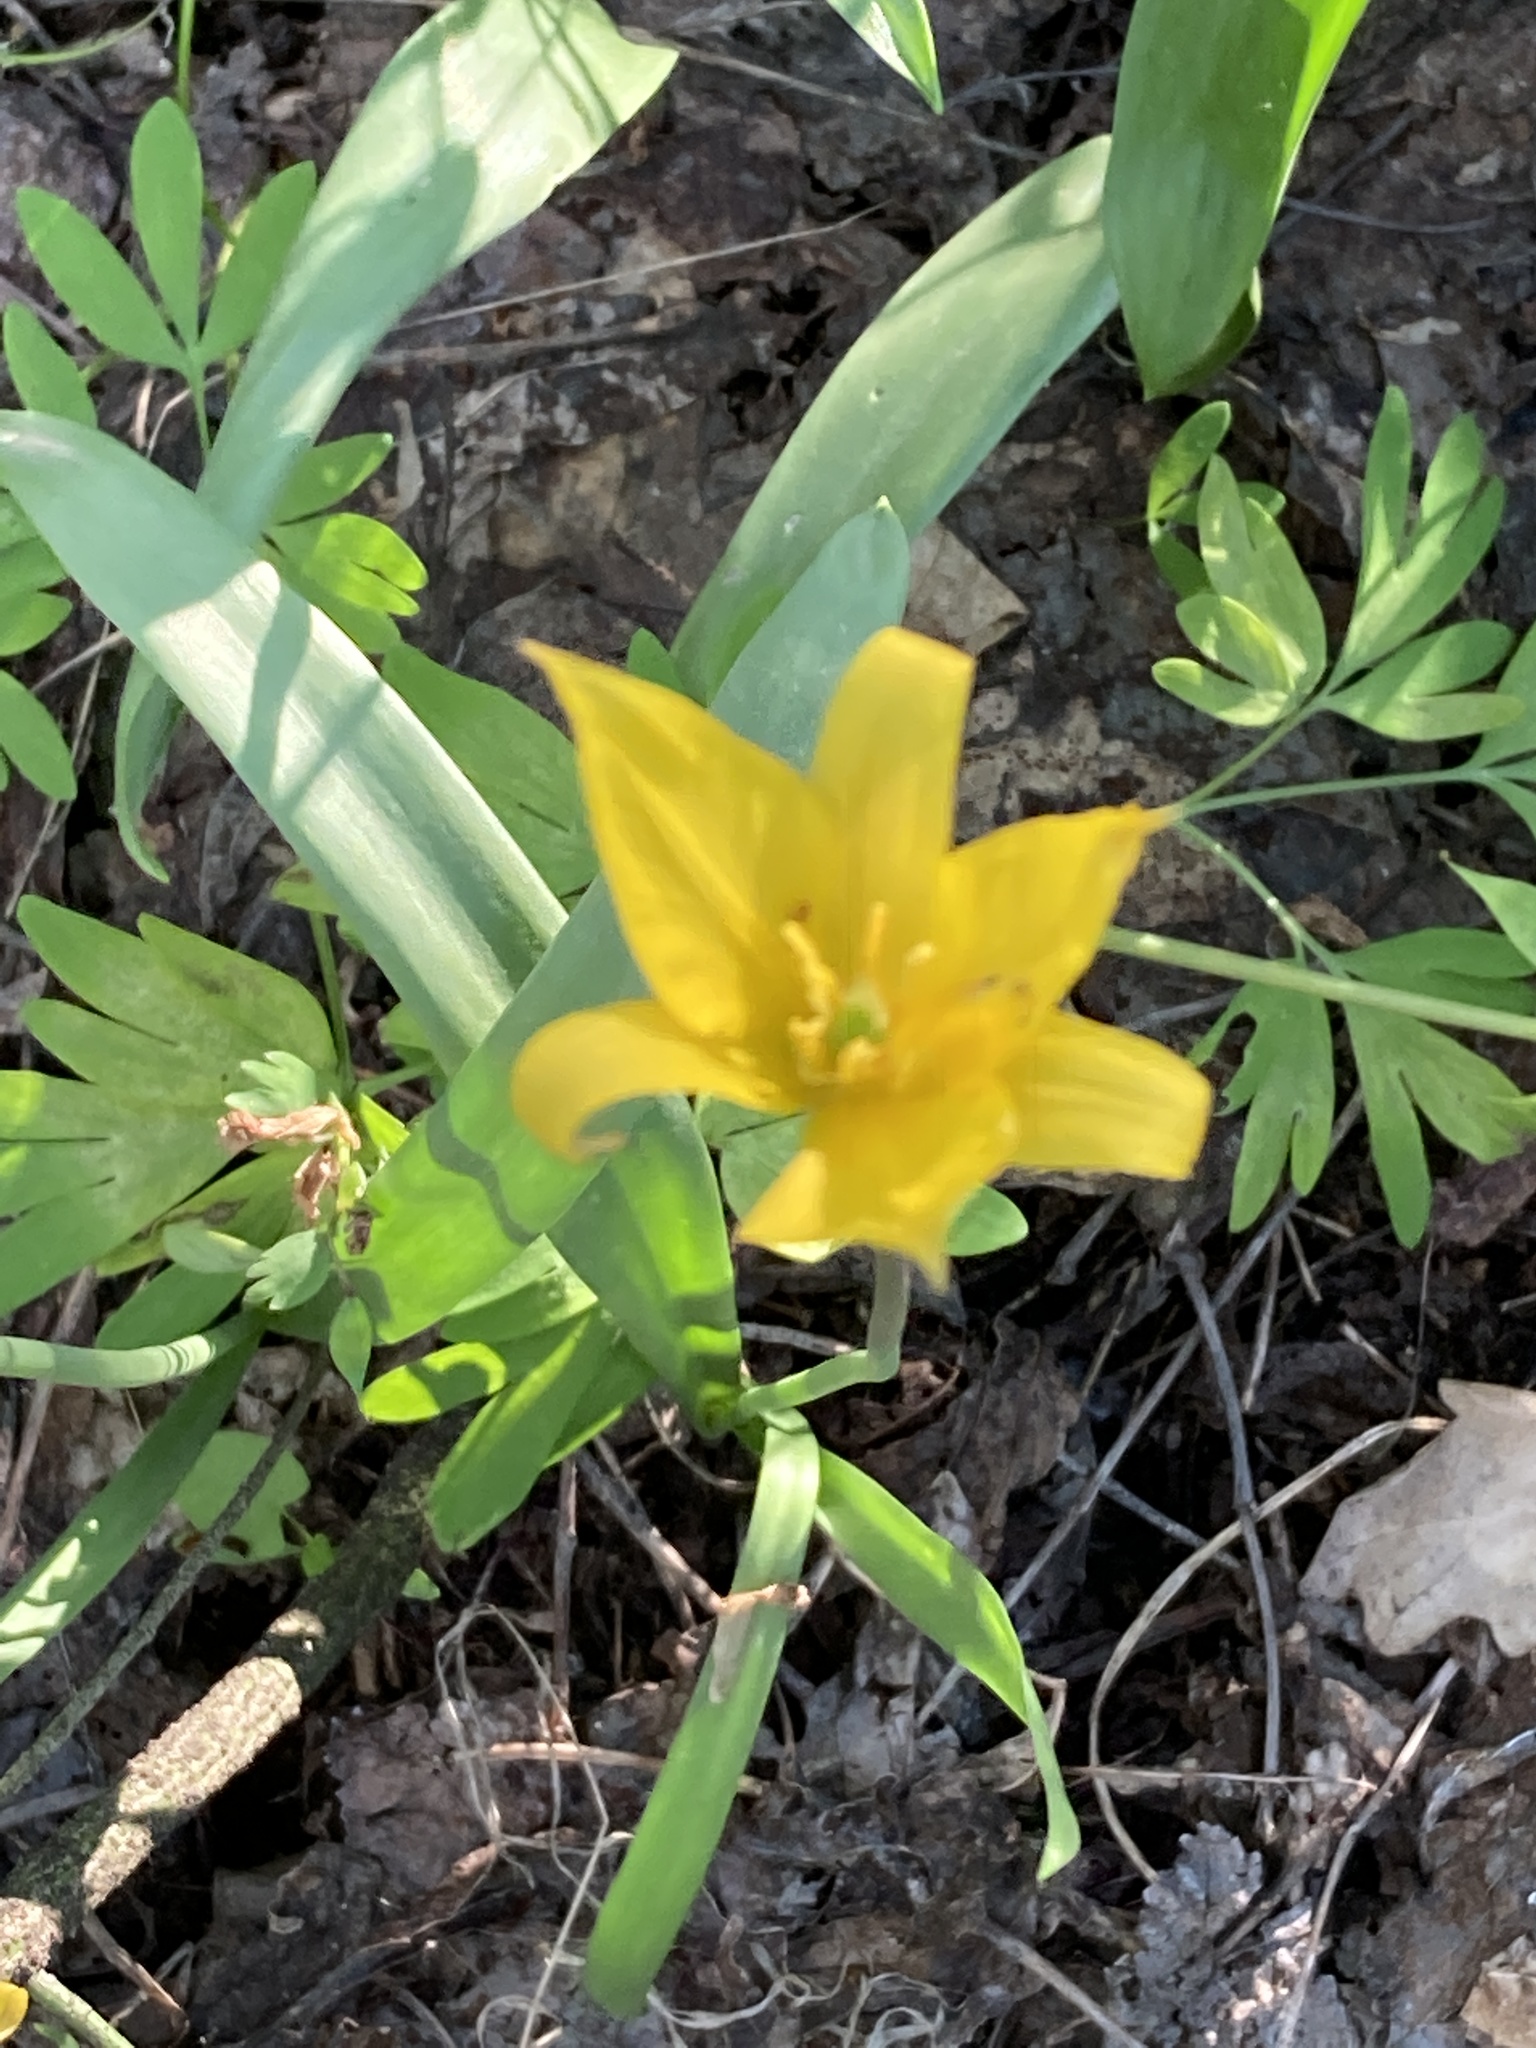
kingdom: Plantae
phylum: Tracheophyta
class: Liliopsida
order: Liliales
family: Liliaceae
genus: Tulipa
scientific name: Tulipa sylvestris
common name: Wild tulip
